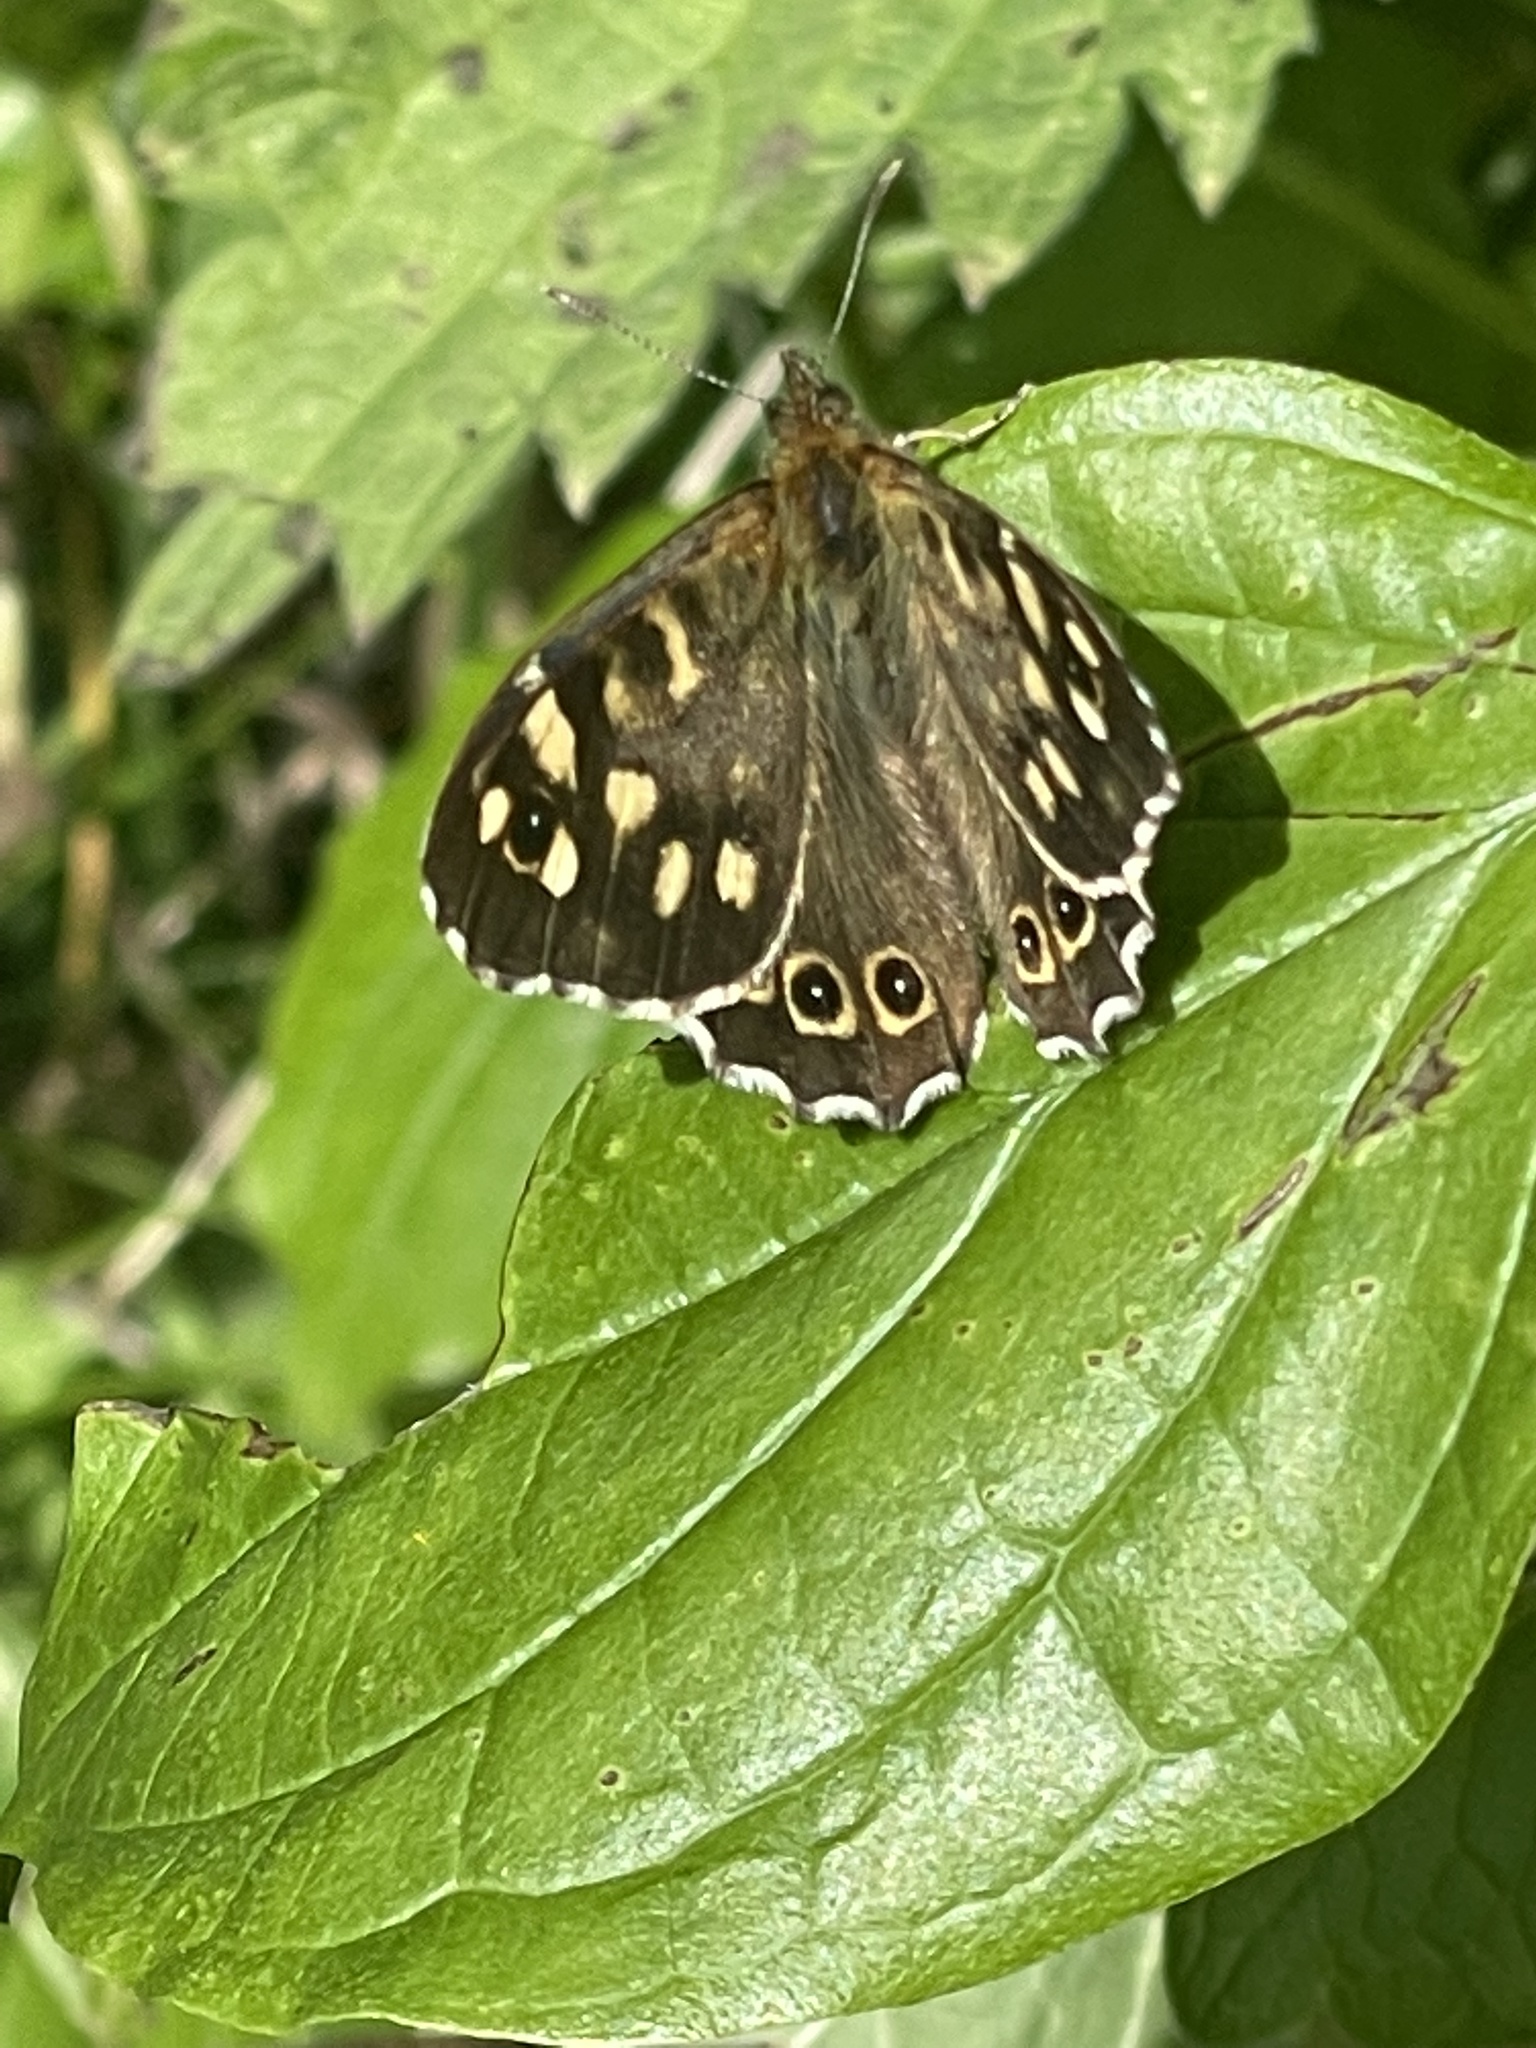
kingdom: Animalia
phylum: Arthropoda
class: Insecta
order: Lepidoptera
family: Nymphalidae
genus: Pararge
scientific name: Pararge aegeria
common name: Speckled wood
